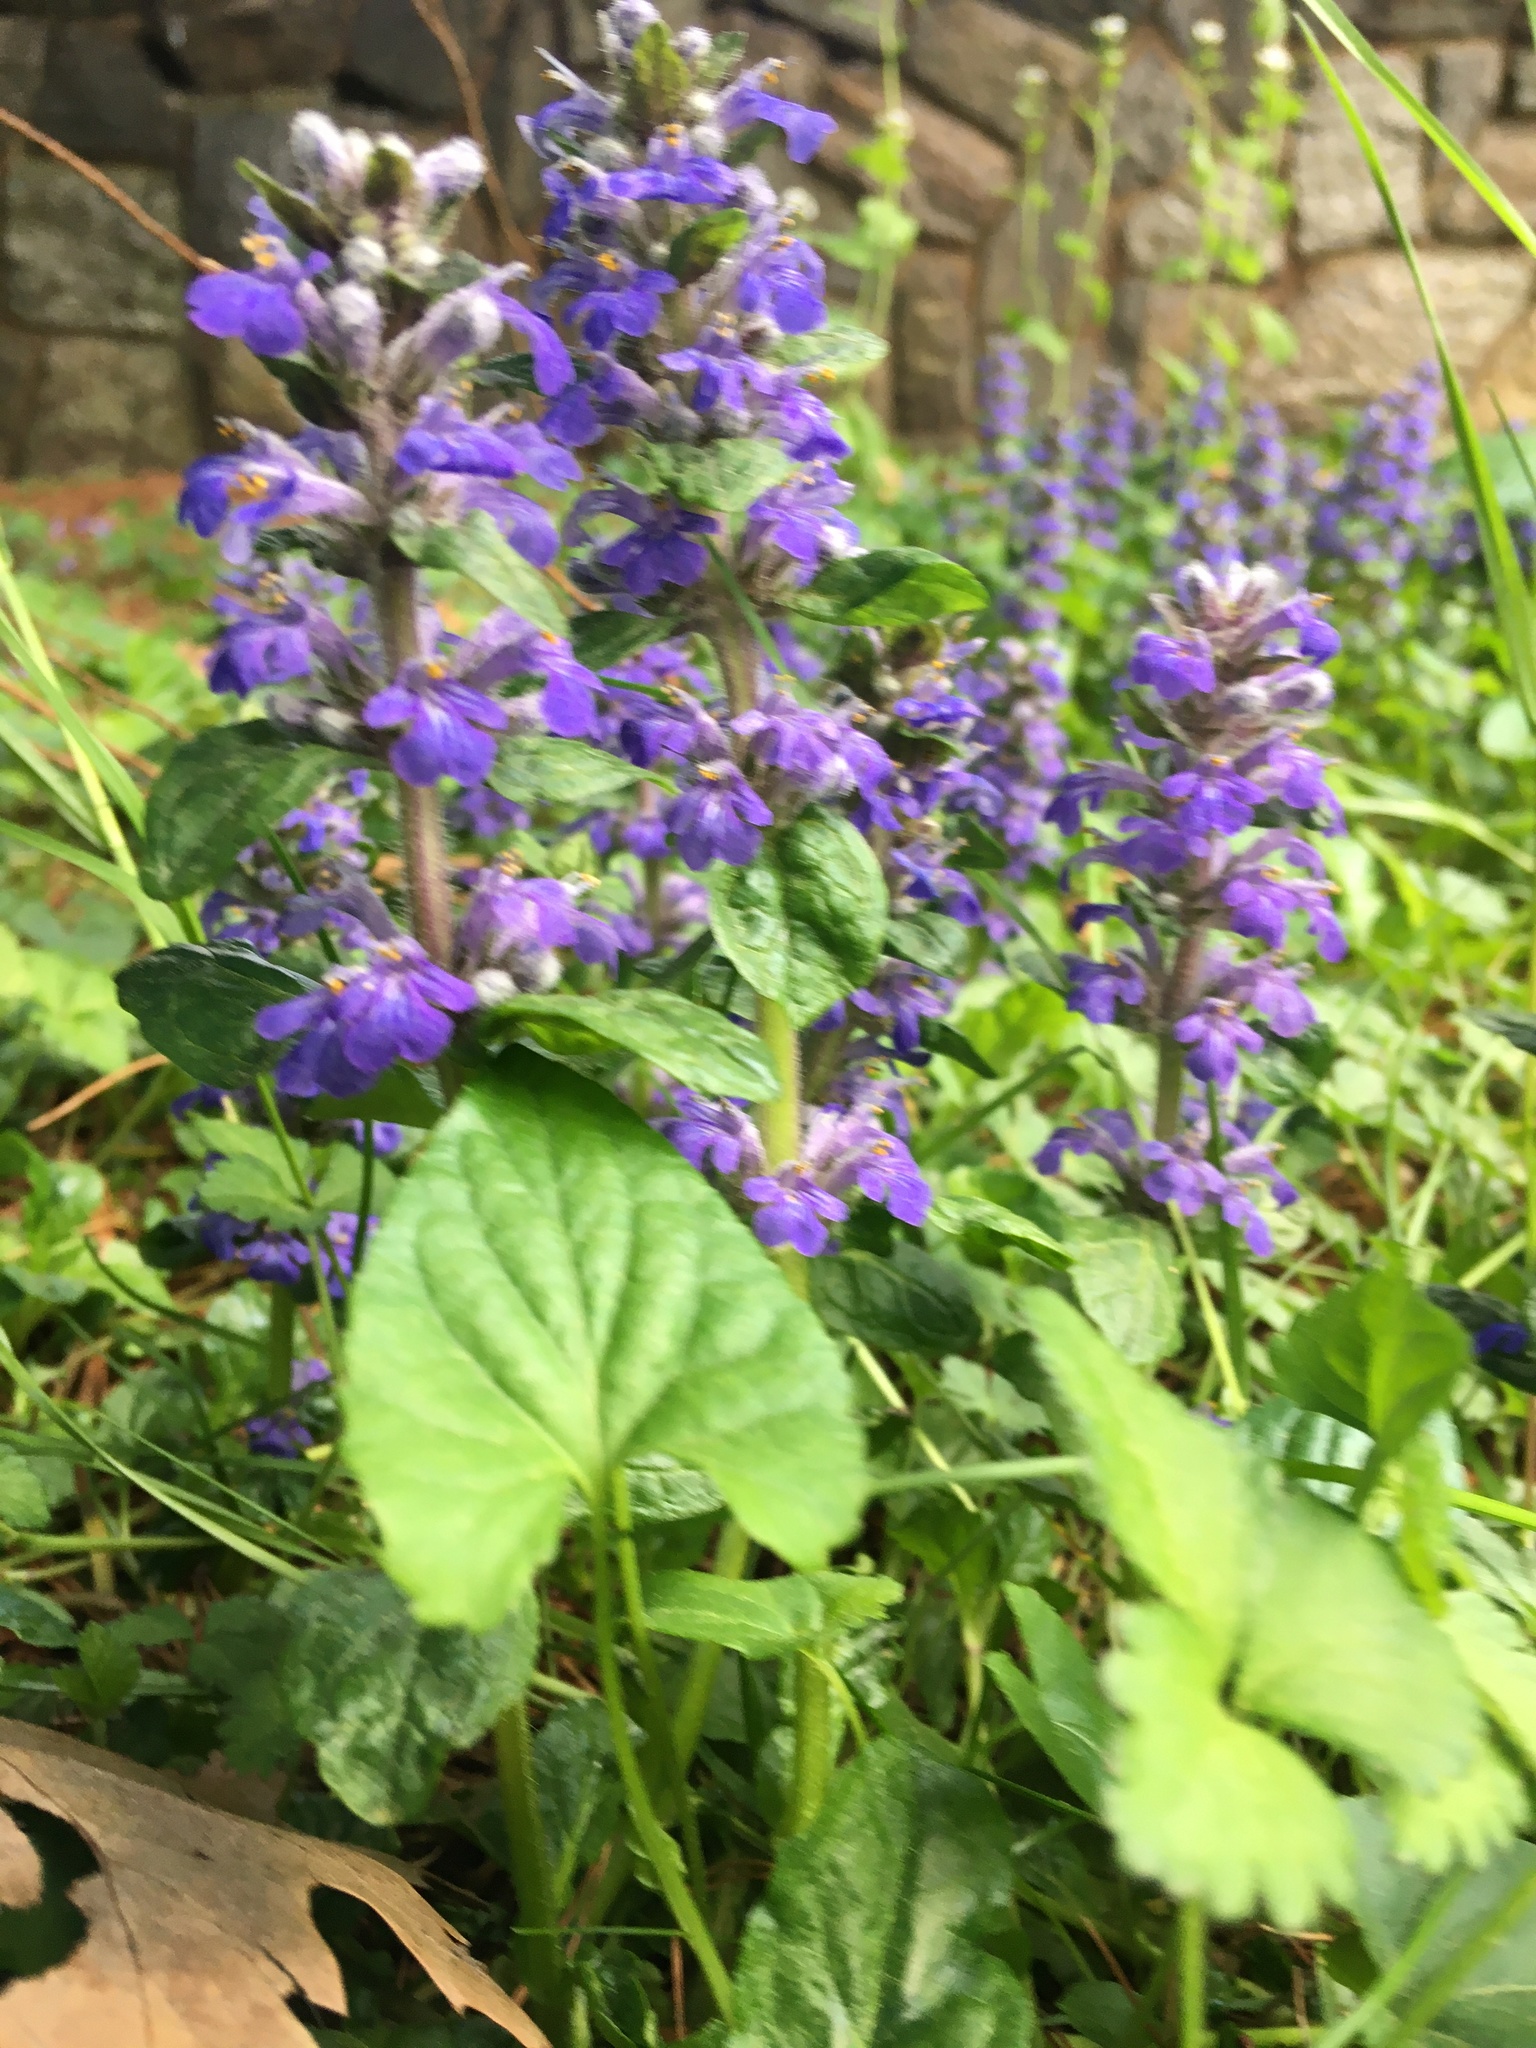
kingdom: Plantae
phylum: Tracheophyta
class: Magnoliopsida
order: Lamiales
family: Lamiaceae
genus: Ajuga
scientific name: Ajuga reptans
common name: Bugle
